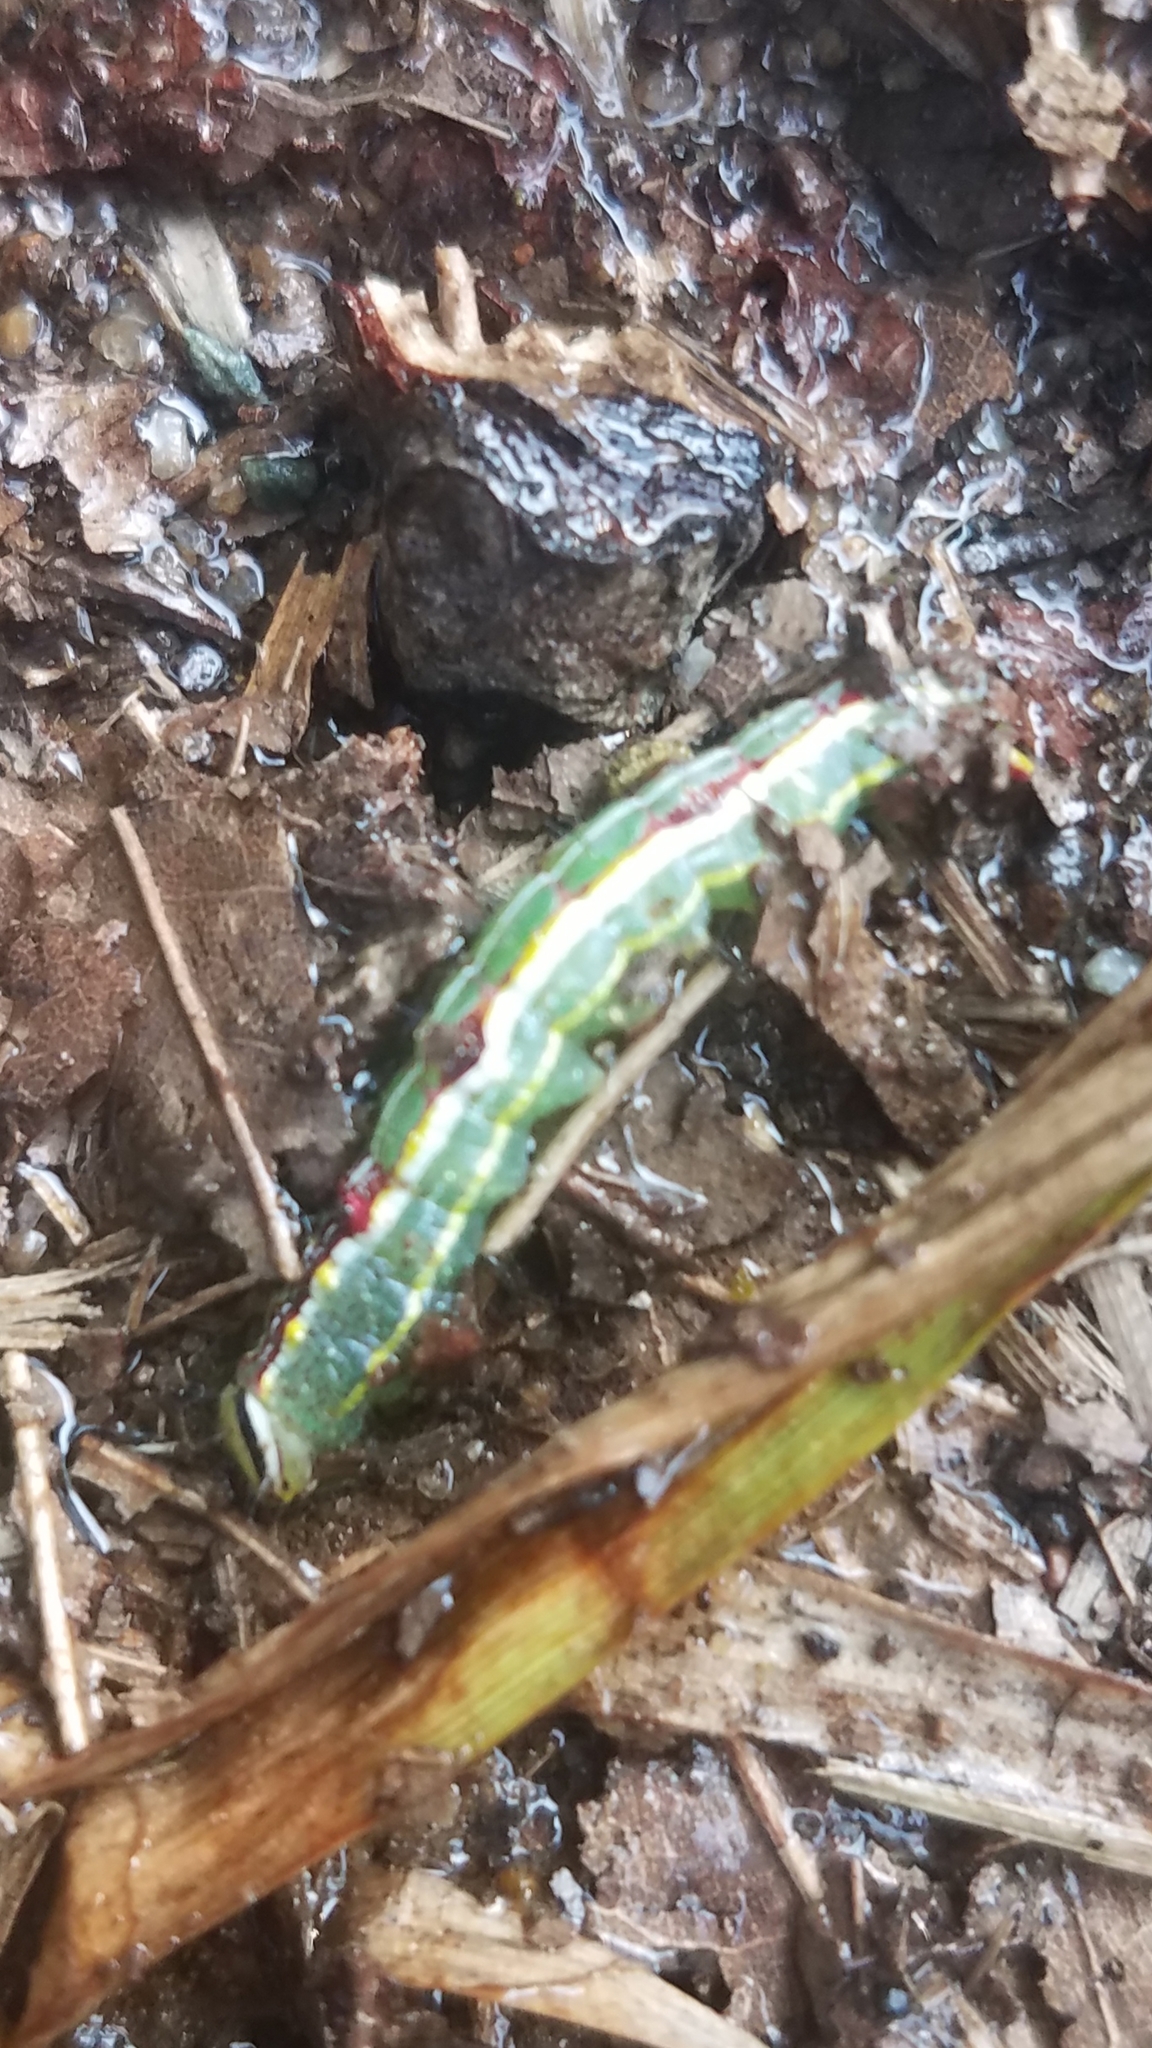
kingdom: Animalia
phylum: Arthropoda
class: Insecta
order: Lepidoptera
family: Notodontidae
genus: Lochmaeus
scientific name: Lochmaeus manteo
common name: Variable oakleaf caterpillar moth
